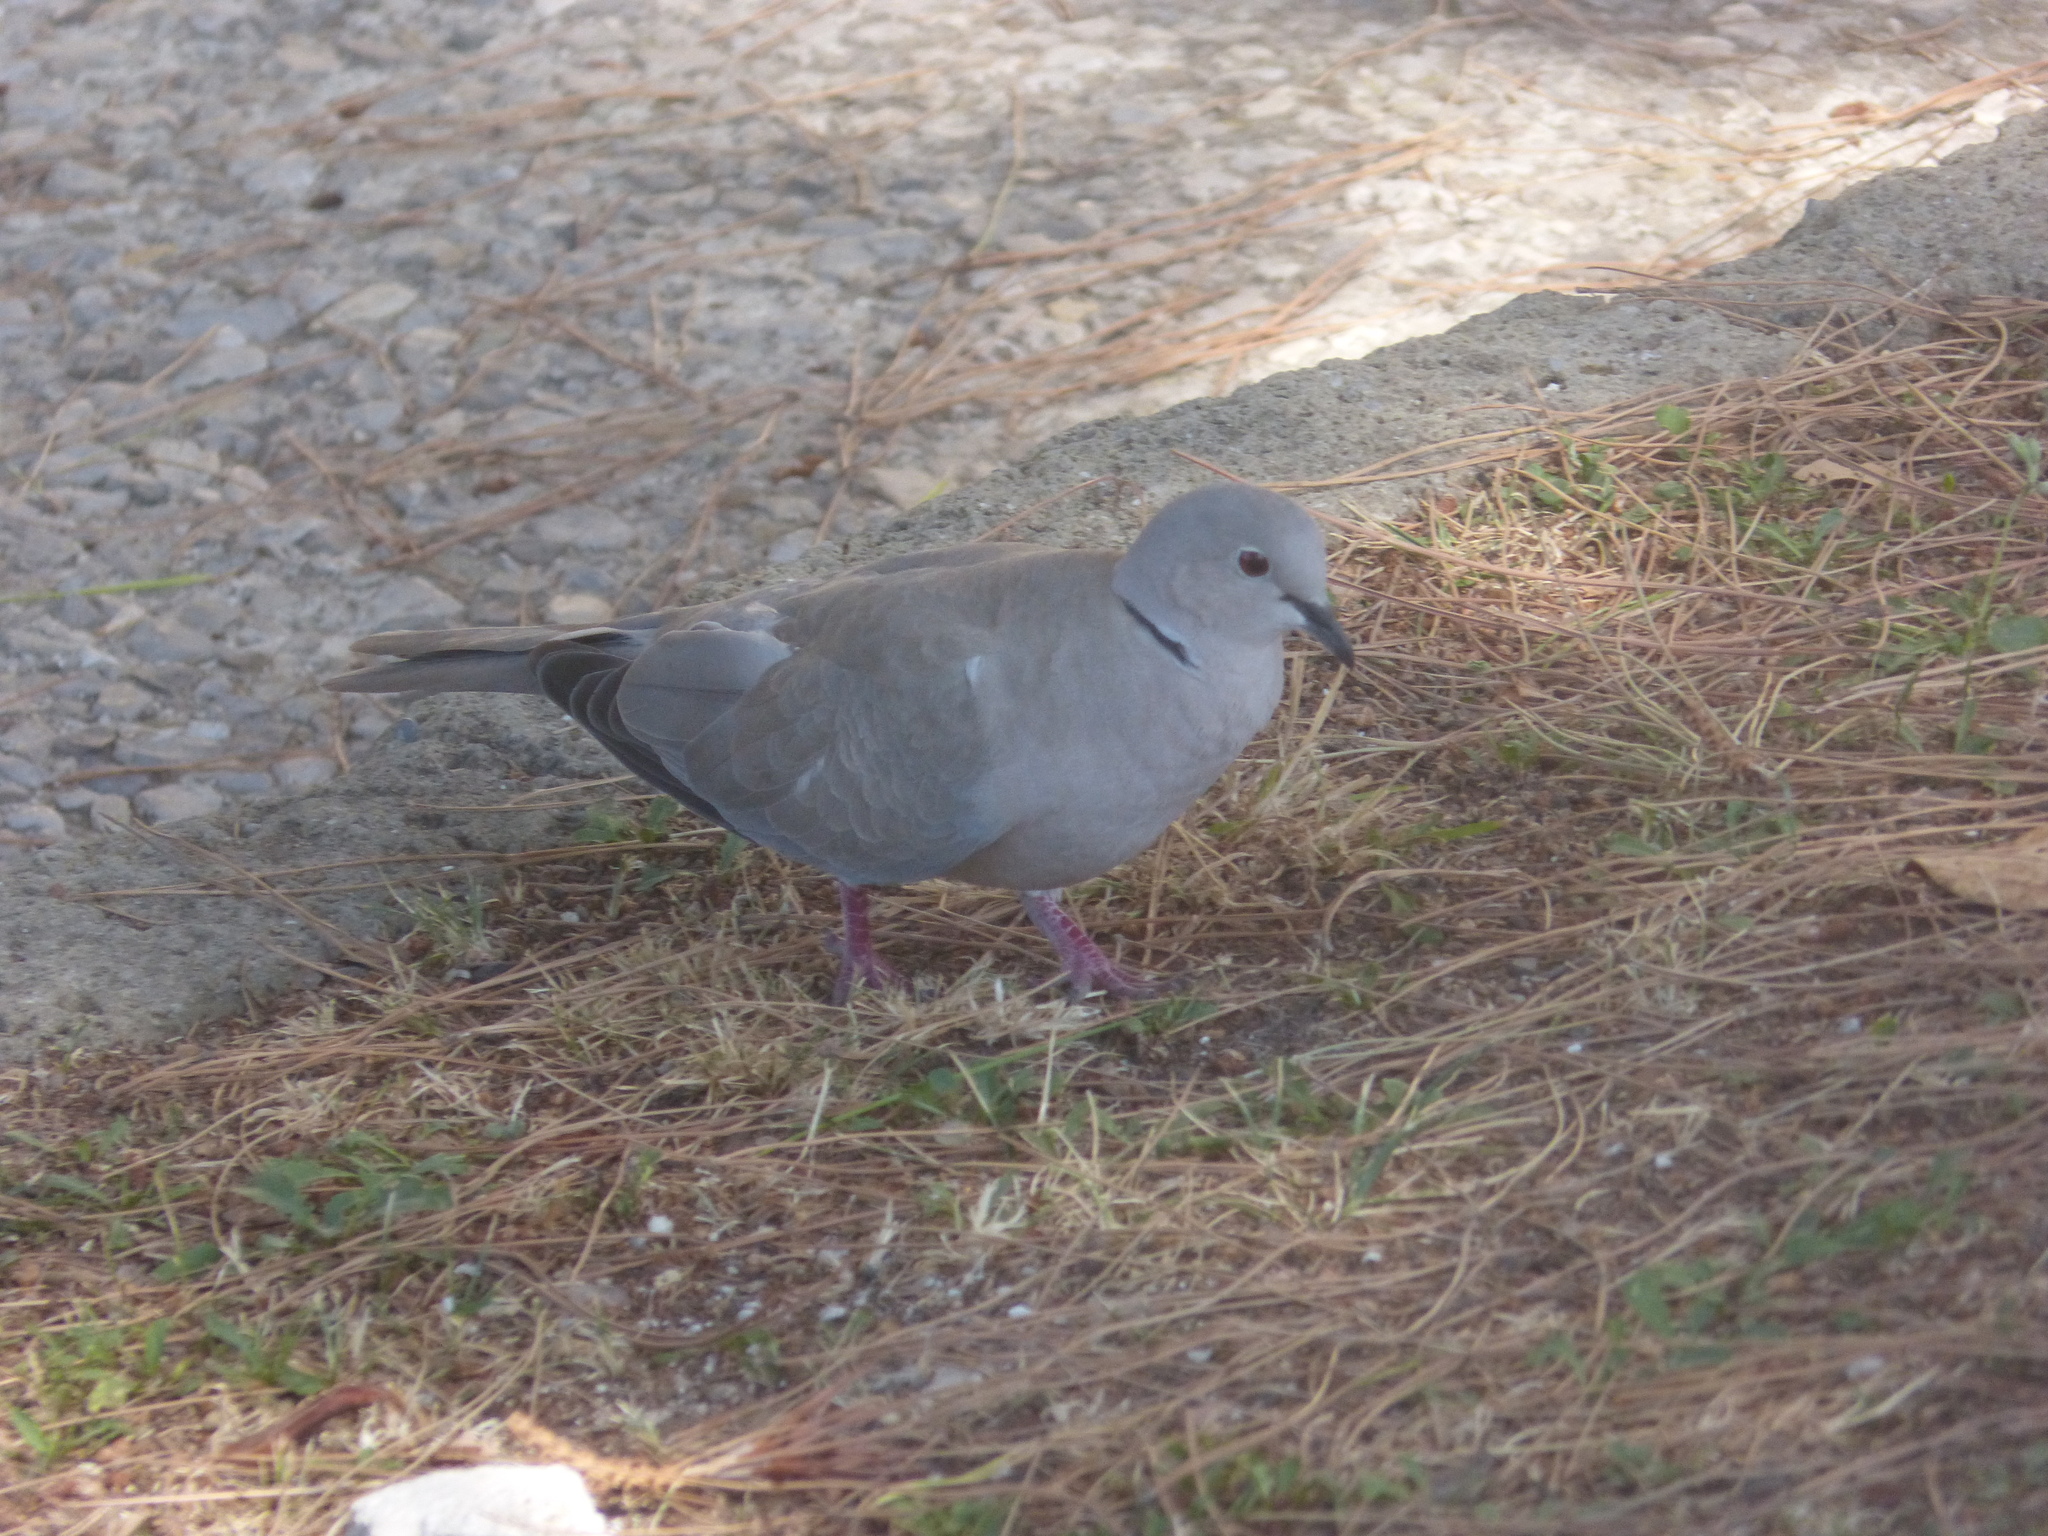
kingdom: Animalia
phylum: Chordata
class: Aves
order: Columbiformes
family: Columbidae
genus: Streptopelia
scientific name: Streptopelia decaocto
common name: Eurasian collared dove
